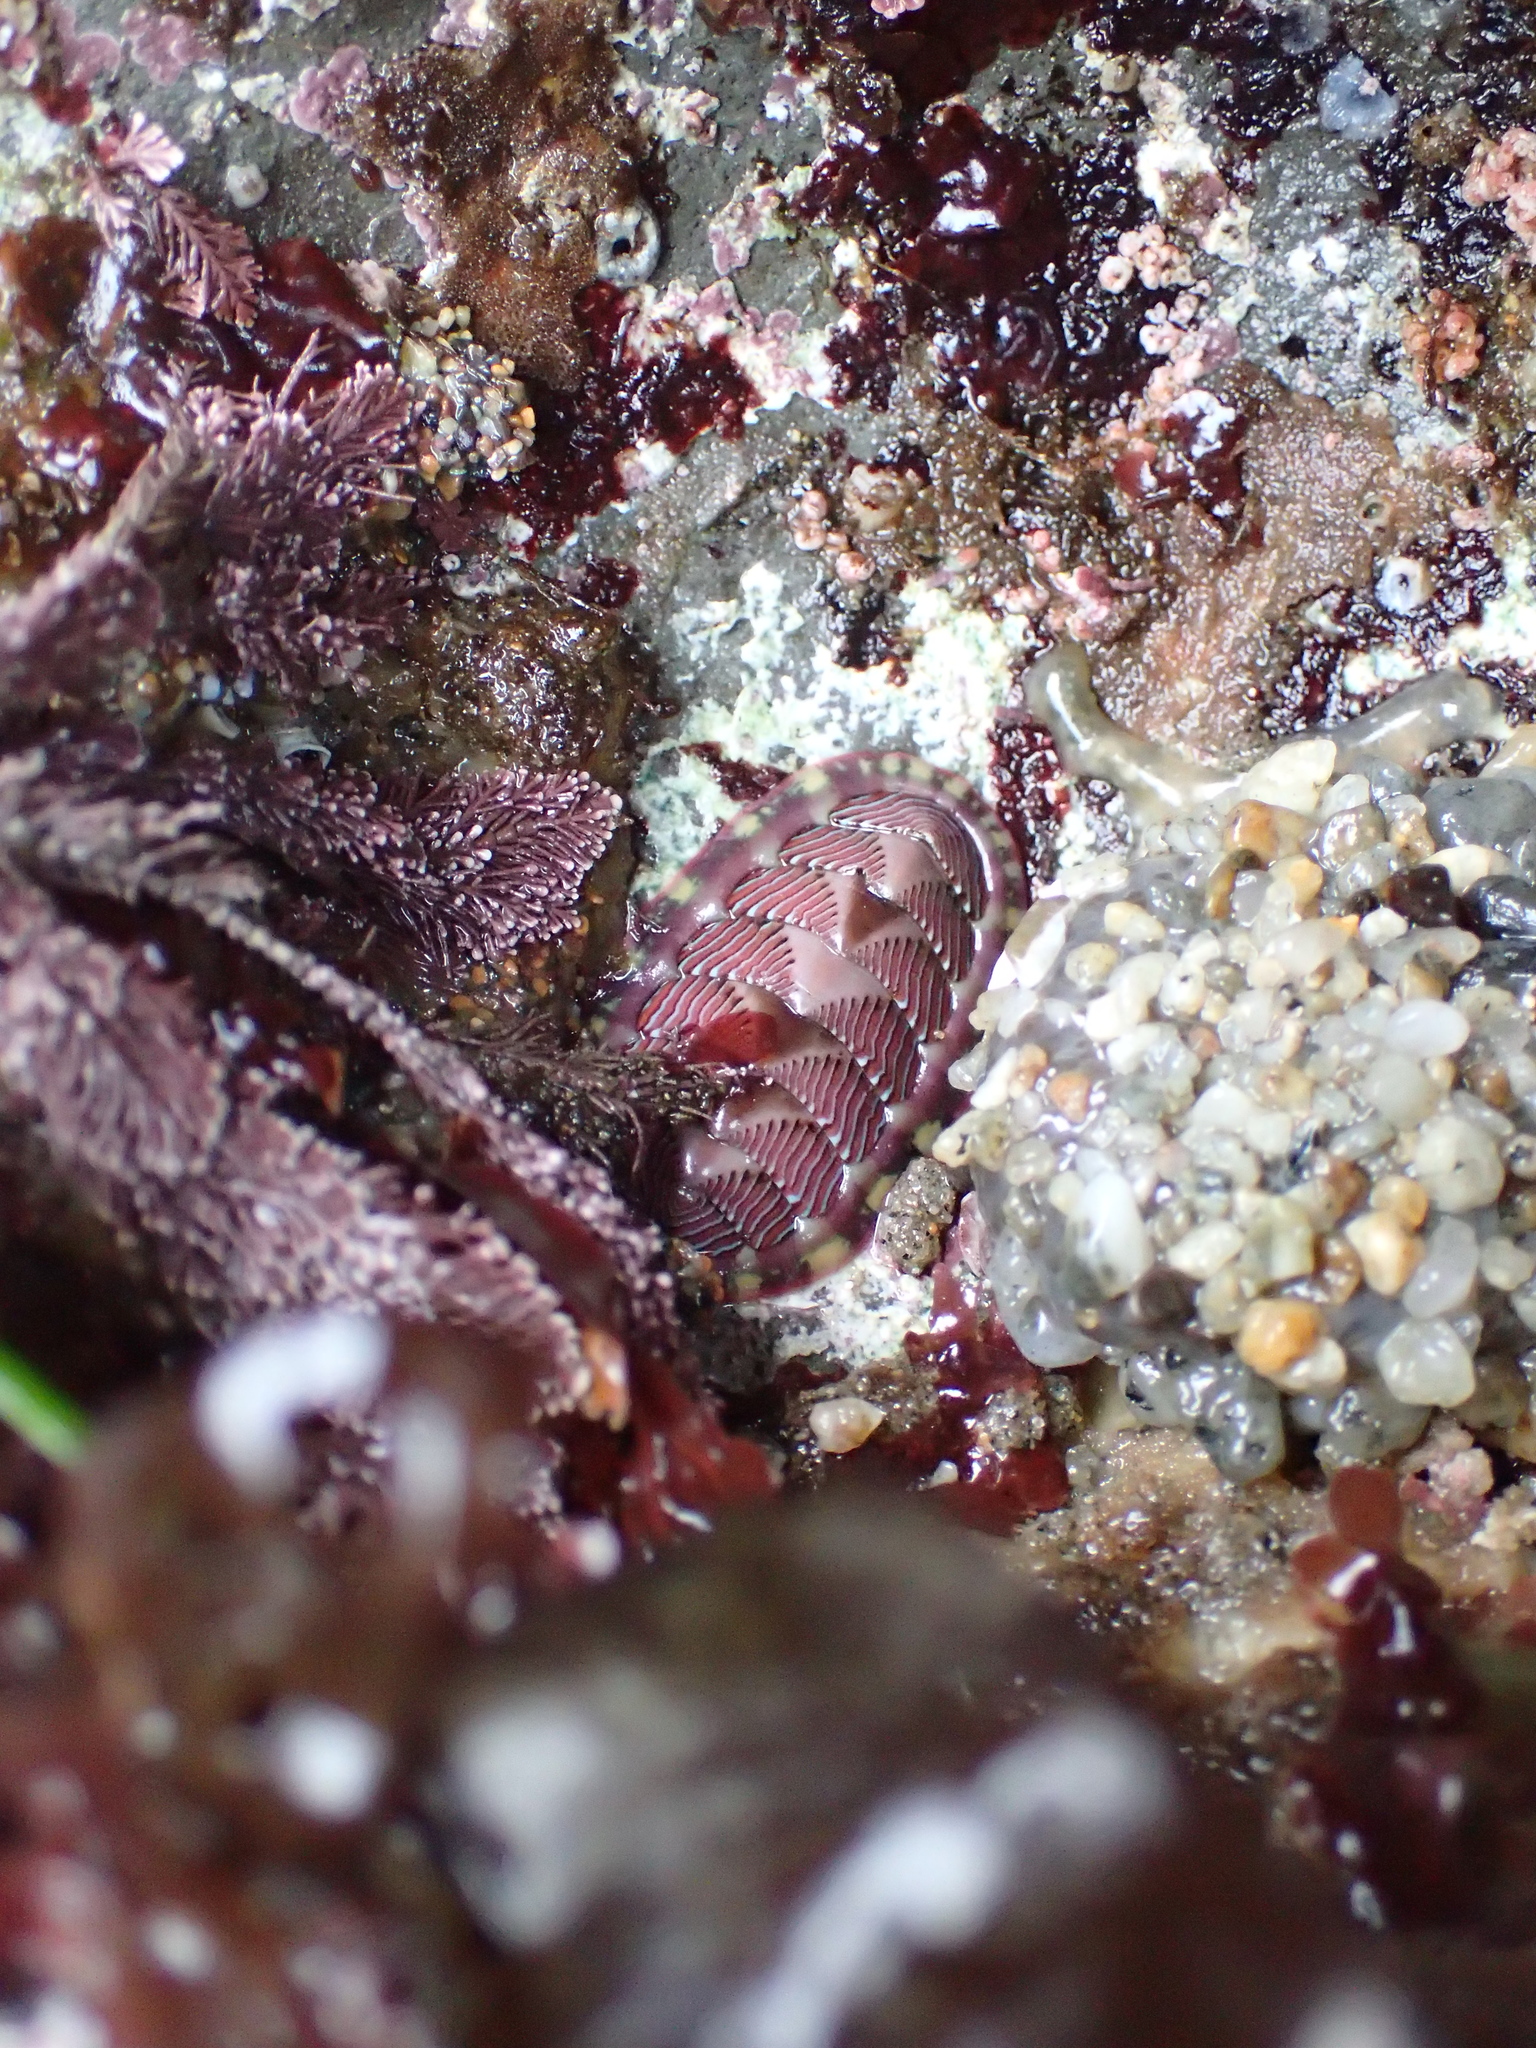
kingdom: Animalia
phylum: Mollusca
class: Polyplacophora
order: Chitonida
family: Tonicellidae
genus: Tonicella
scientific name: Tonicella lineata
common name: Lined chiton
